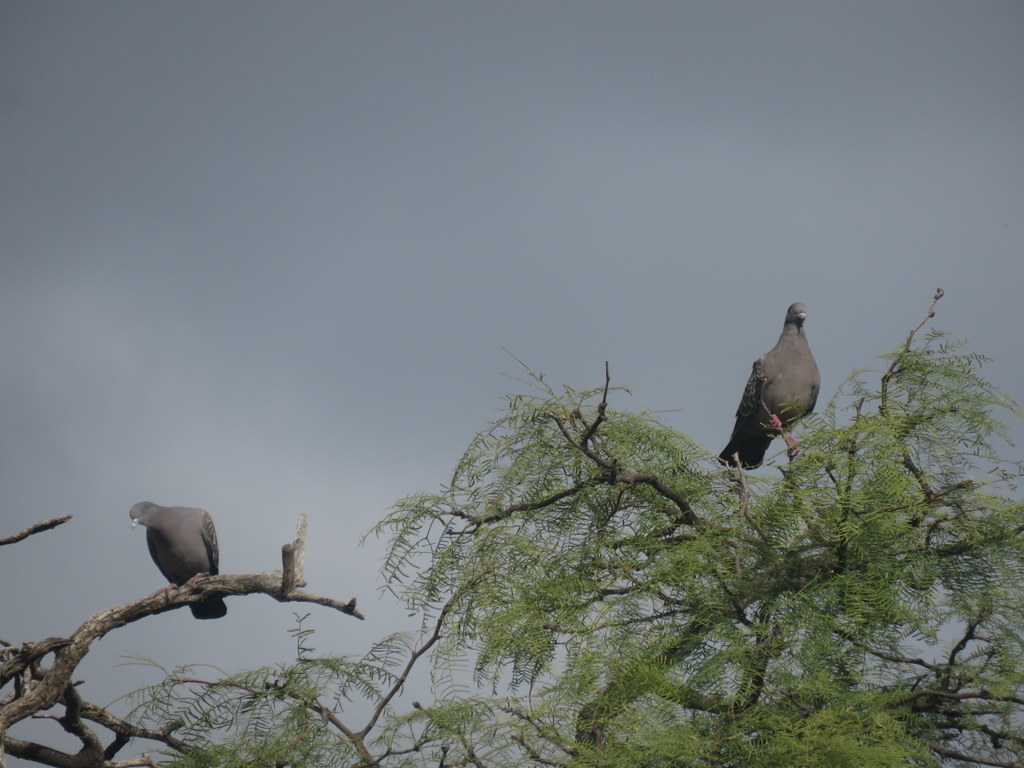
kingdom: Animalia
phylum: Chordata
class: Aves
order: Columbiformes
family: Columbidae
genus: Patagioenas
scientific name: Patagioenas maculosa
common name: Spot-winged pigeon
